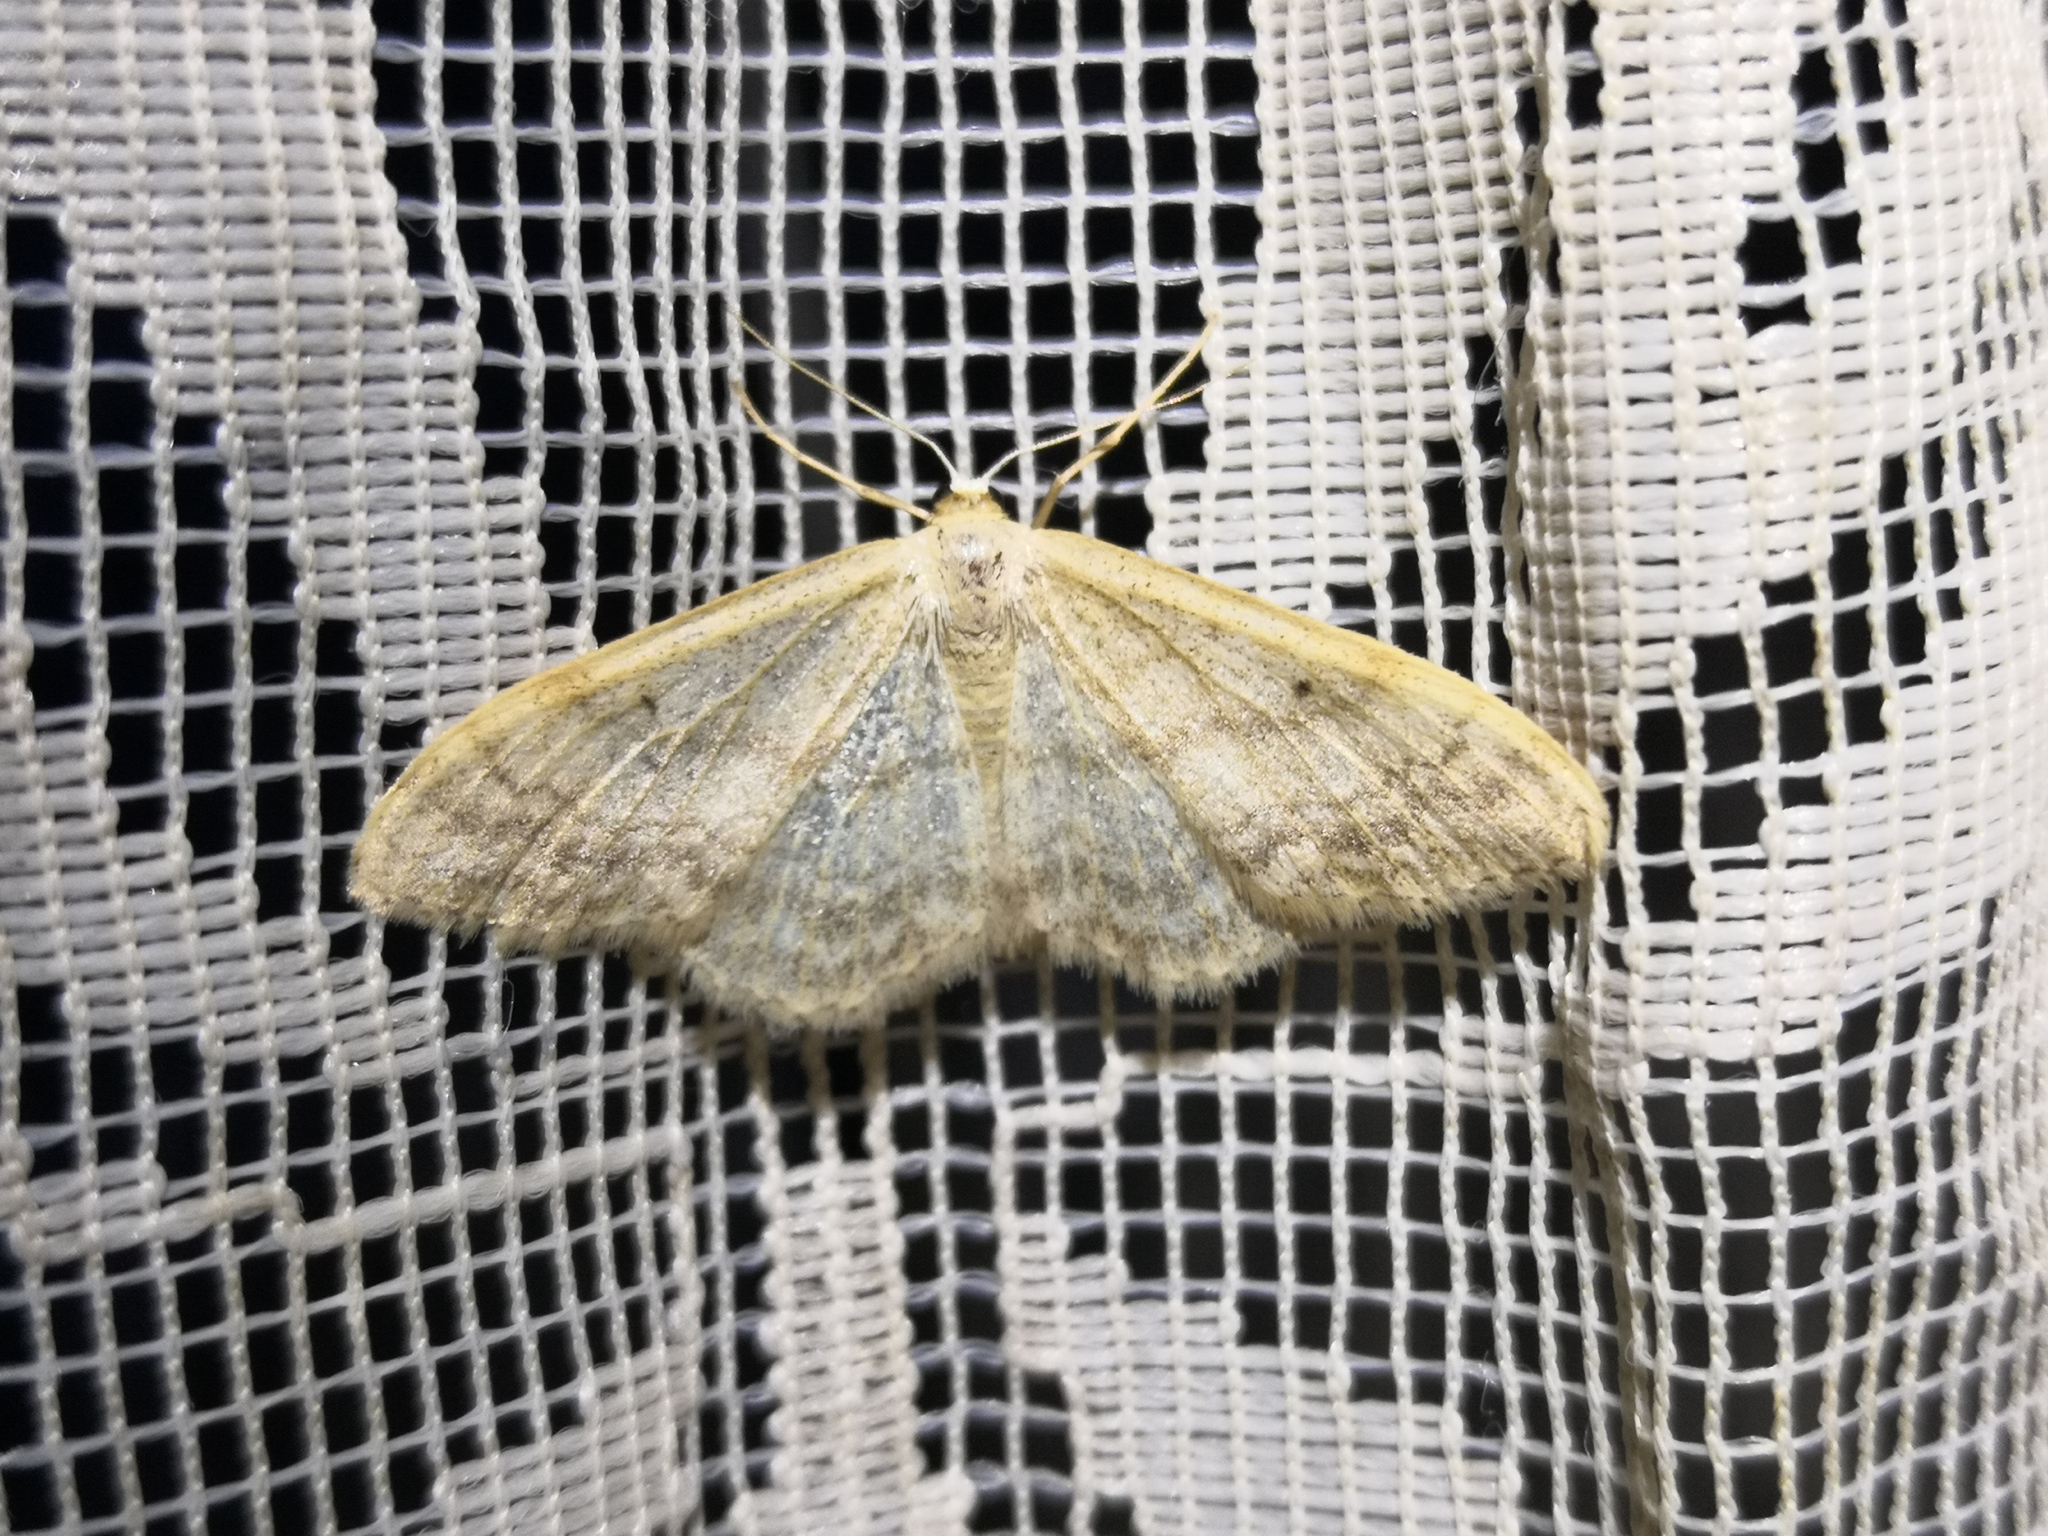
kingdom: Animalia
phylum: Arthropoda
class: Insecta
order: Lepidoptera
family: Geometridae
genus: Idaea
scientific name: Idaea maritimaria
